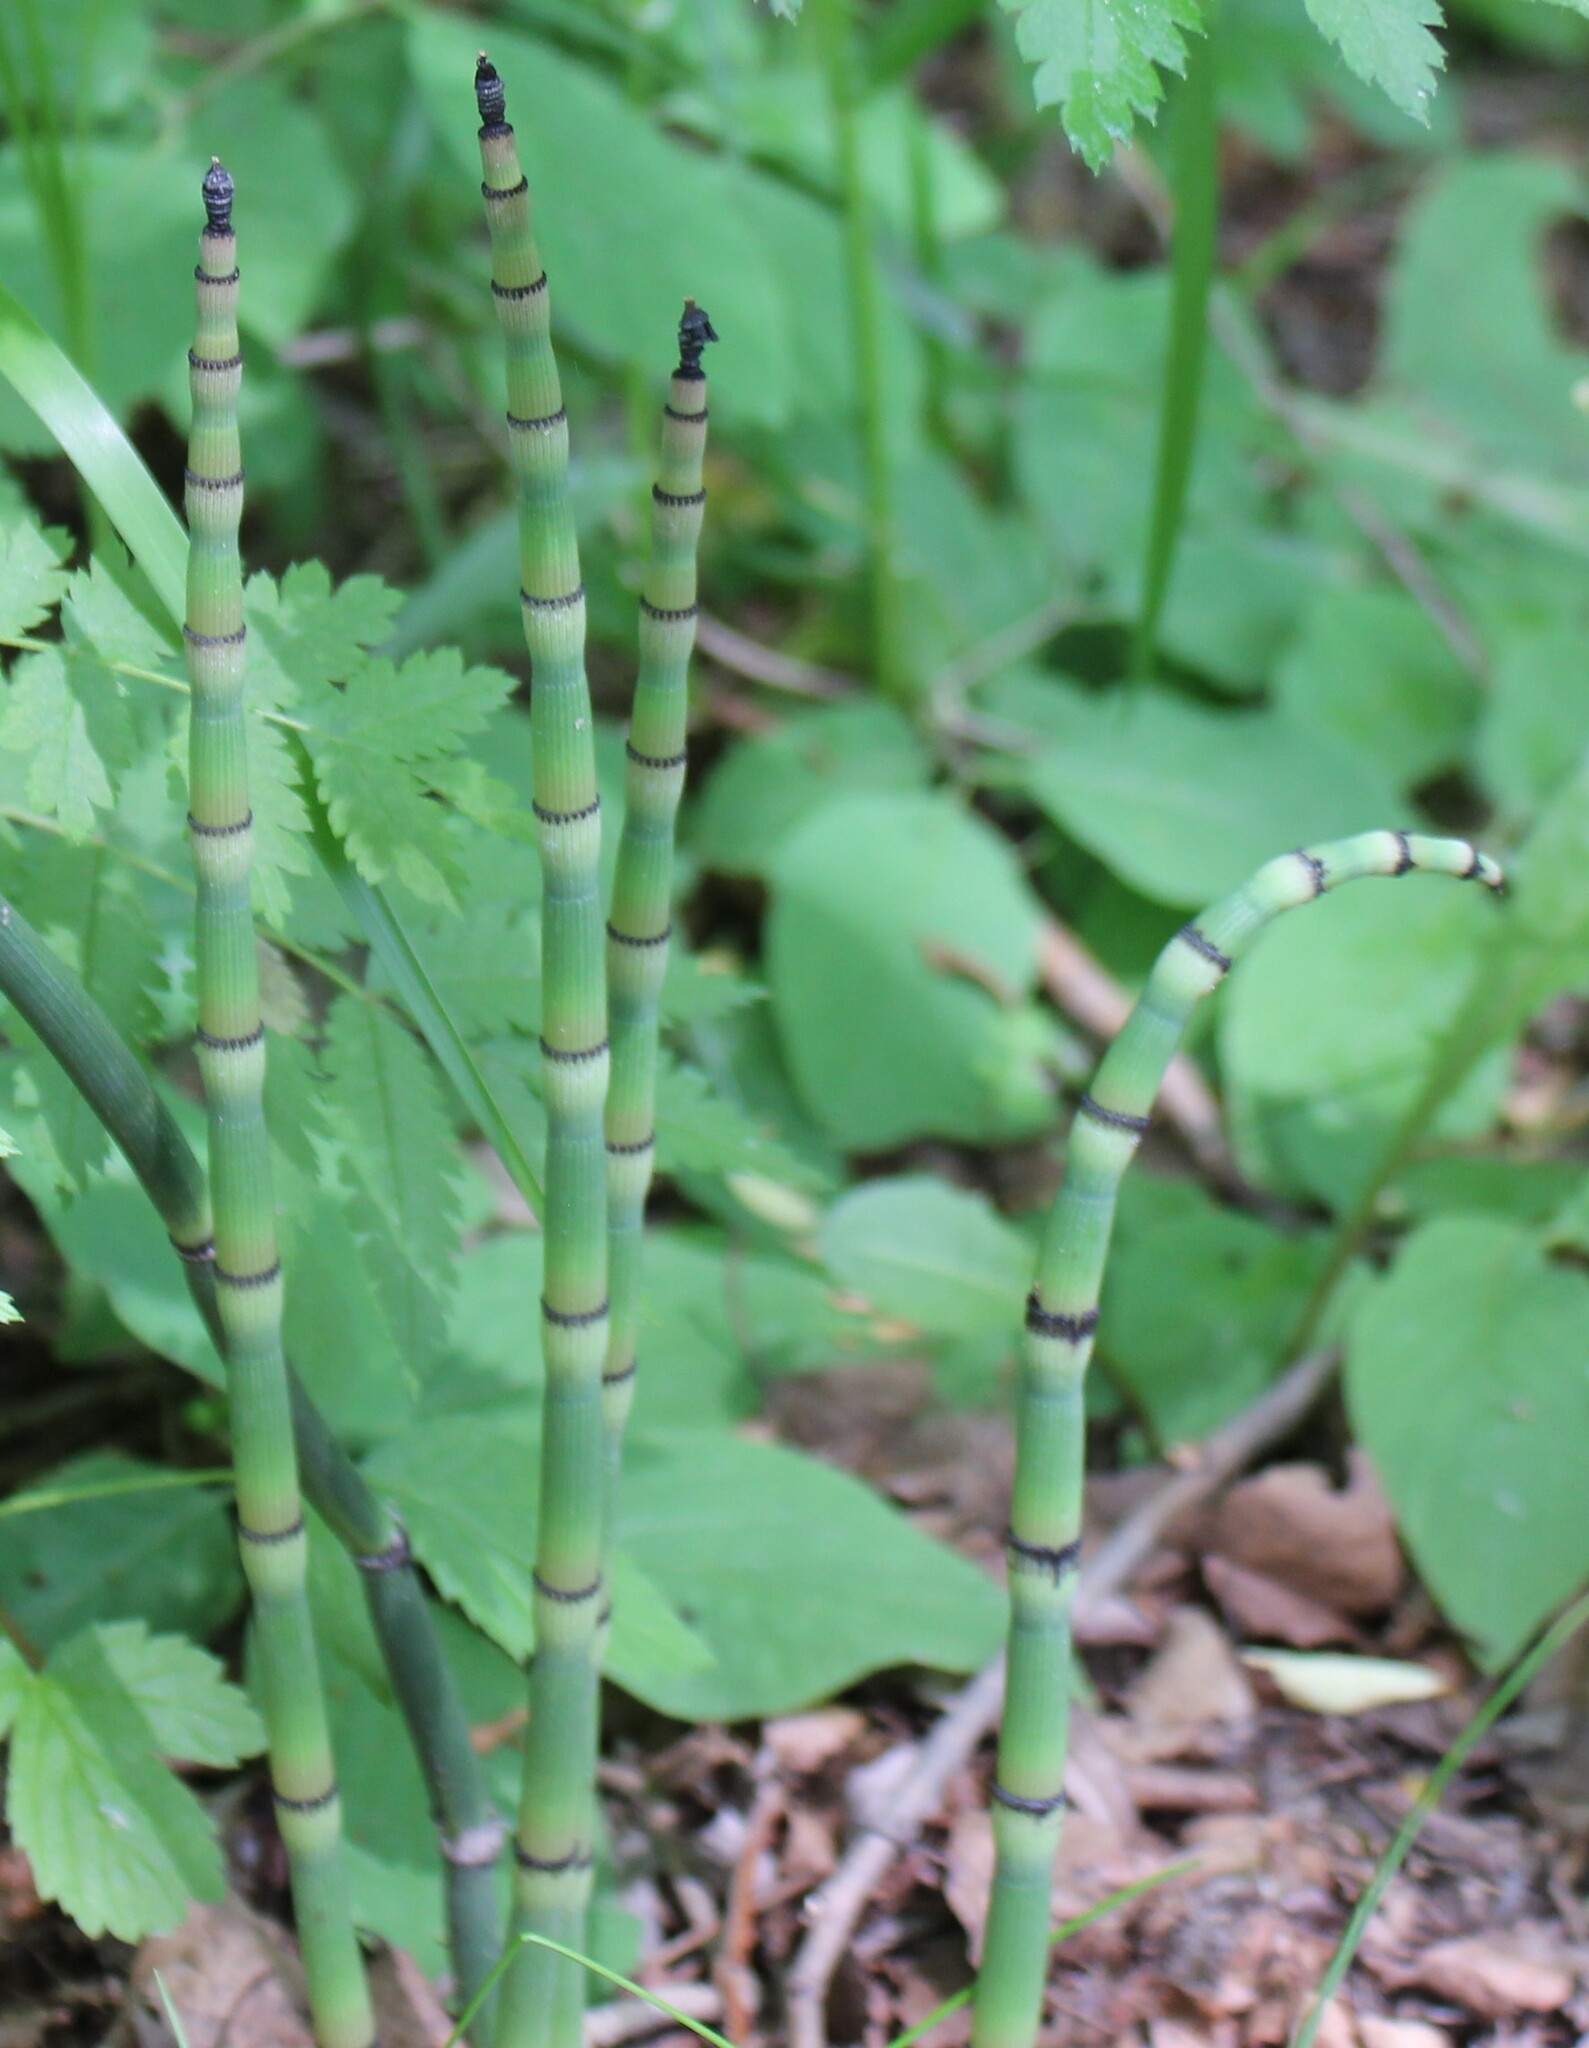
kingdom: Plantae
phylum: Tracheophyta
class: Polypodiopsida
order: Equisetales
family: Equisetaceae
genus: Equisetum
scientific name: Equisetum hyemale
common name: Rough horsetail
